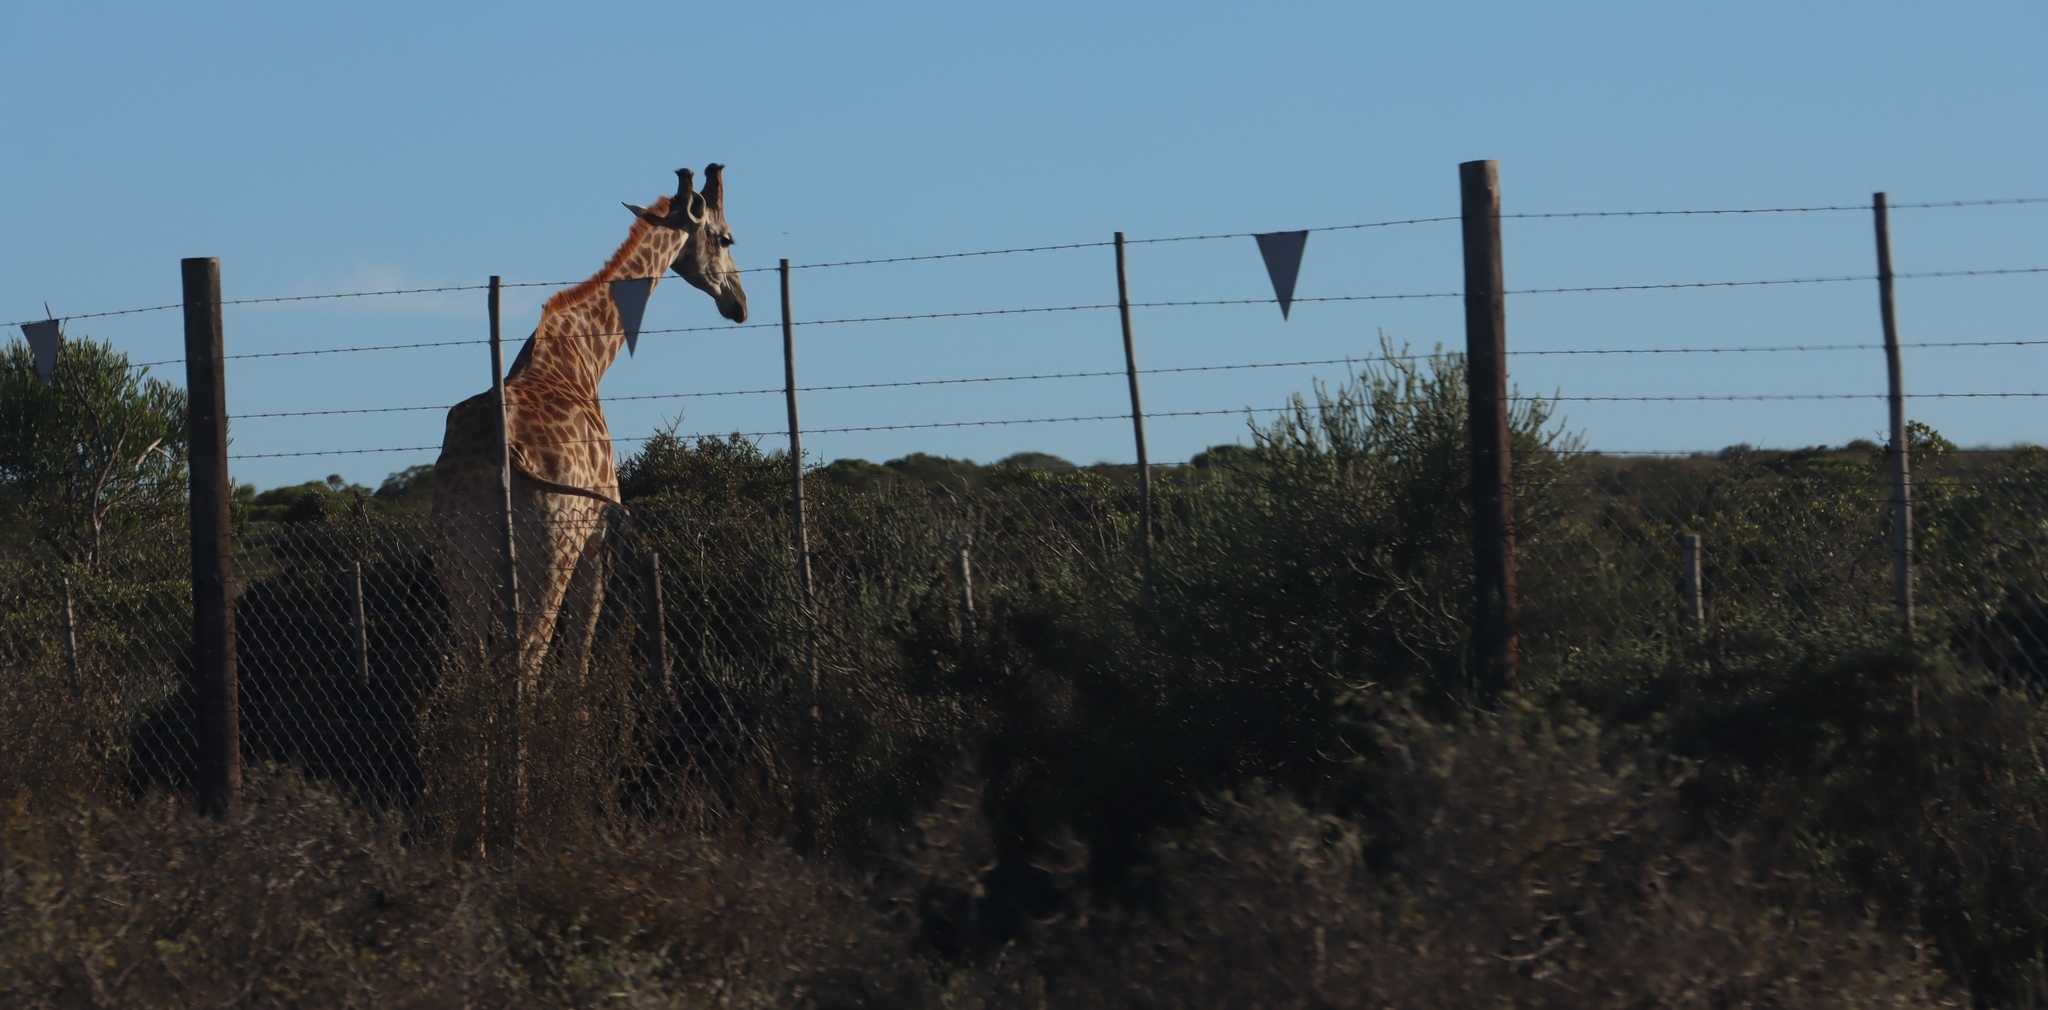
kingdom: Animalia
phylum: Chordata
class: Mammalia
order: Artiodactyla
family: Giraffidae
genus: Giraffa
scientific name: Giraffa giraffa
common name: Southern giraffe
